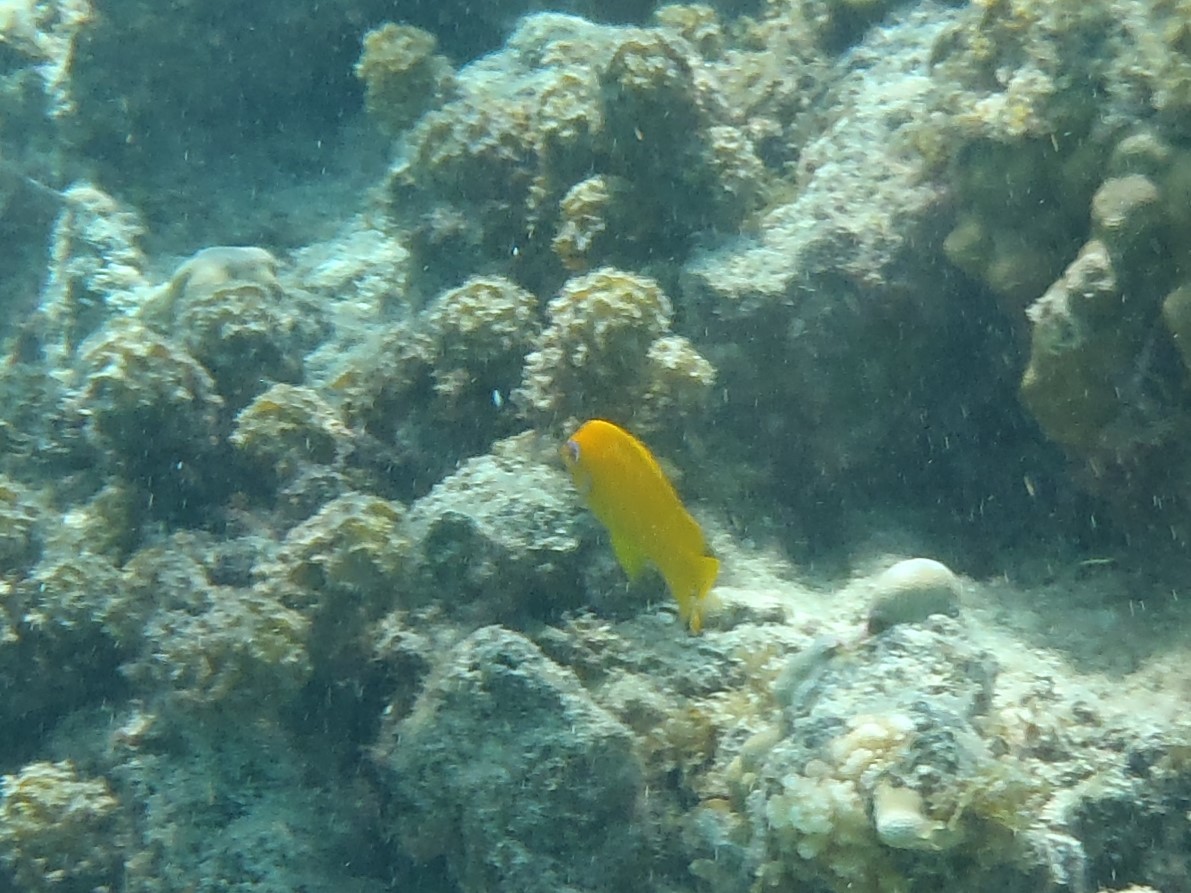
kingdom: Animalia
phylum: Chordata
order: Perciformes
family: Pomacanthidae
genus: Centropyge
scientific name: Centropyge flavissima
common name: Lemonpeel angelfish
